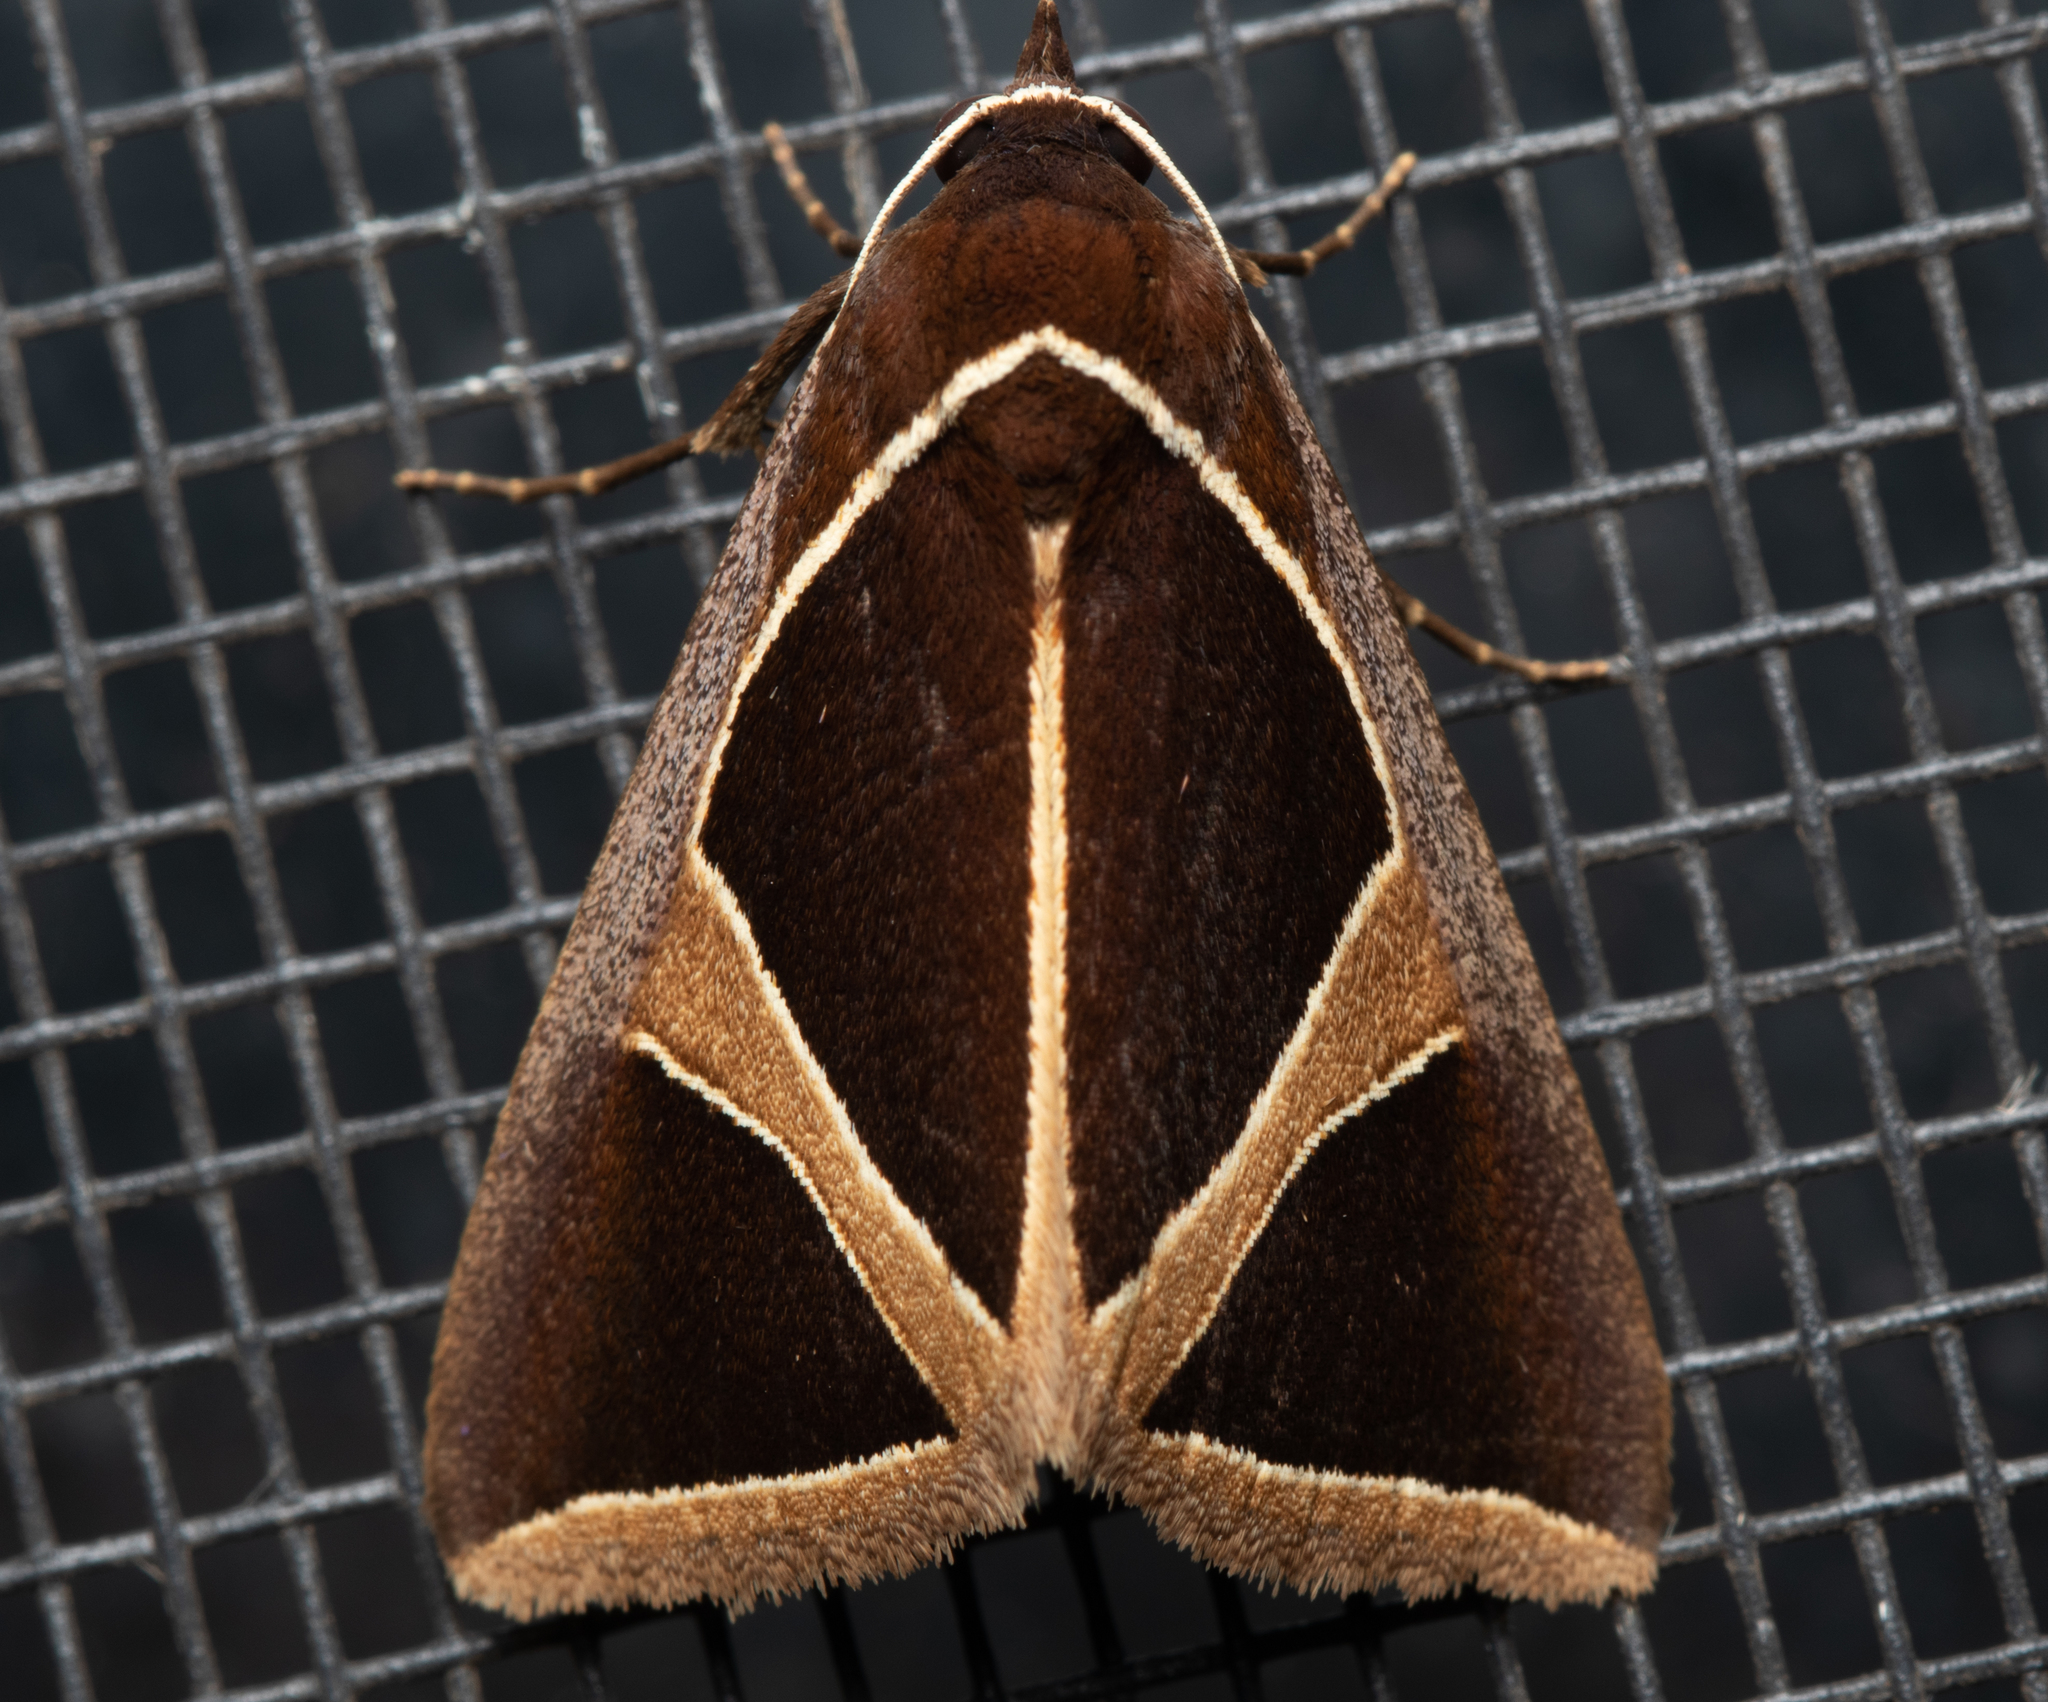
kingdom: Animalia
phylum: Arthropoda
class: Insecta
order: Lepidoptera
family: Erebidae
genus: Agamana
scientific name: Agamana conjungens
